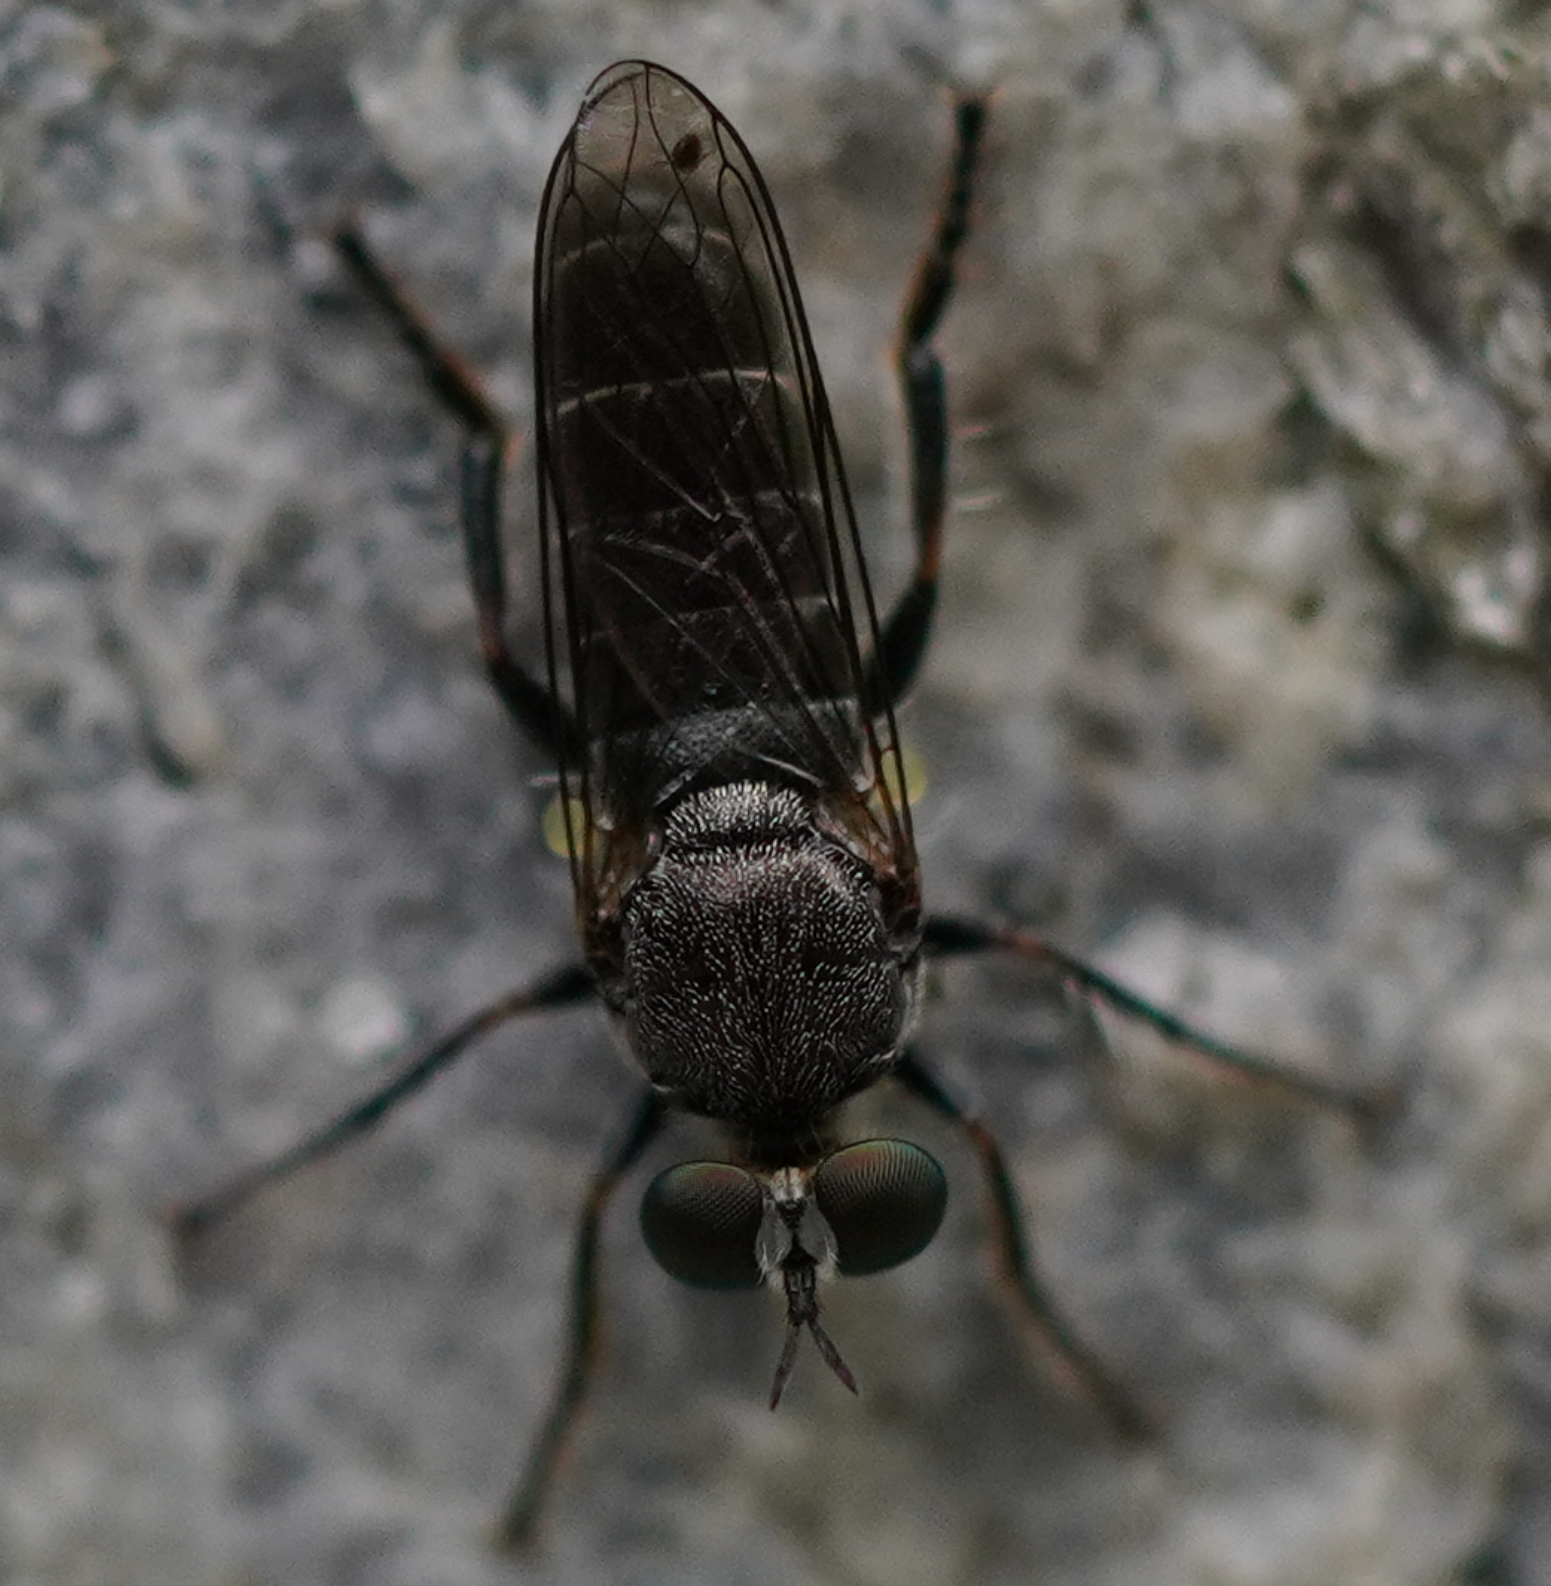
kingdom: Animalia
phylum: Arthropoda
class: Insecta
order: Diptera
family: Asilidae
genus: Atomosia
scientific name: Atomosia puella
